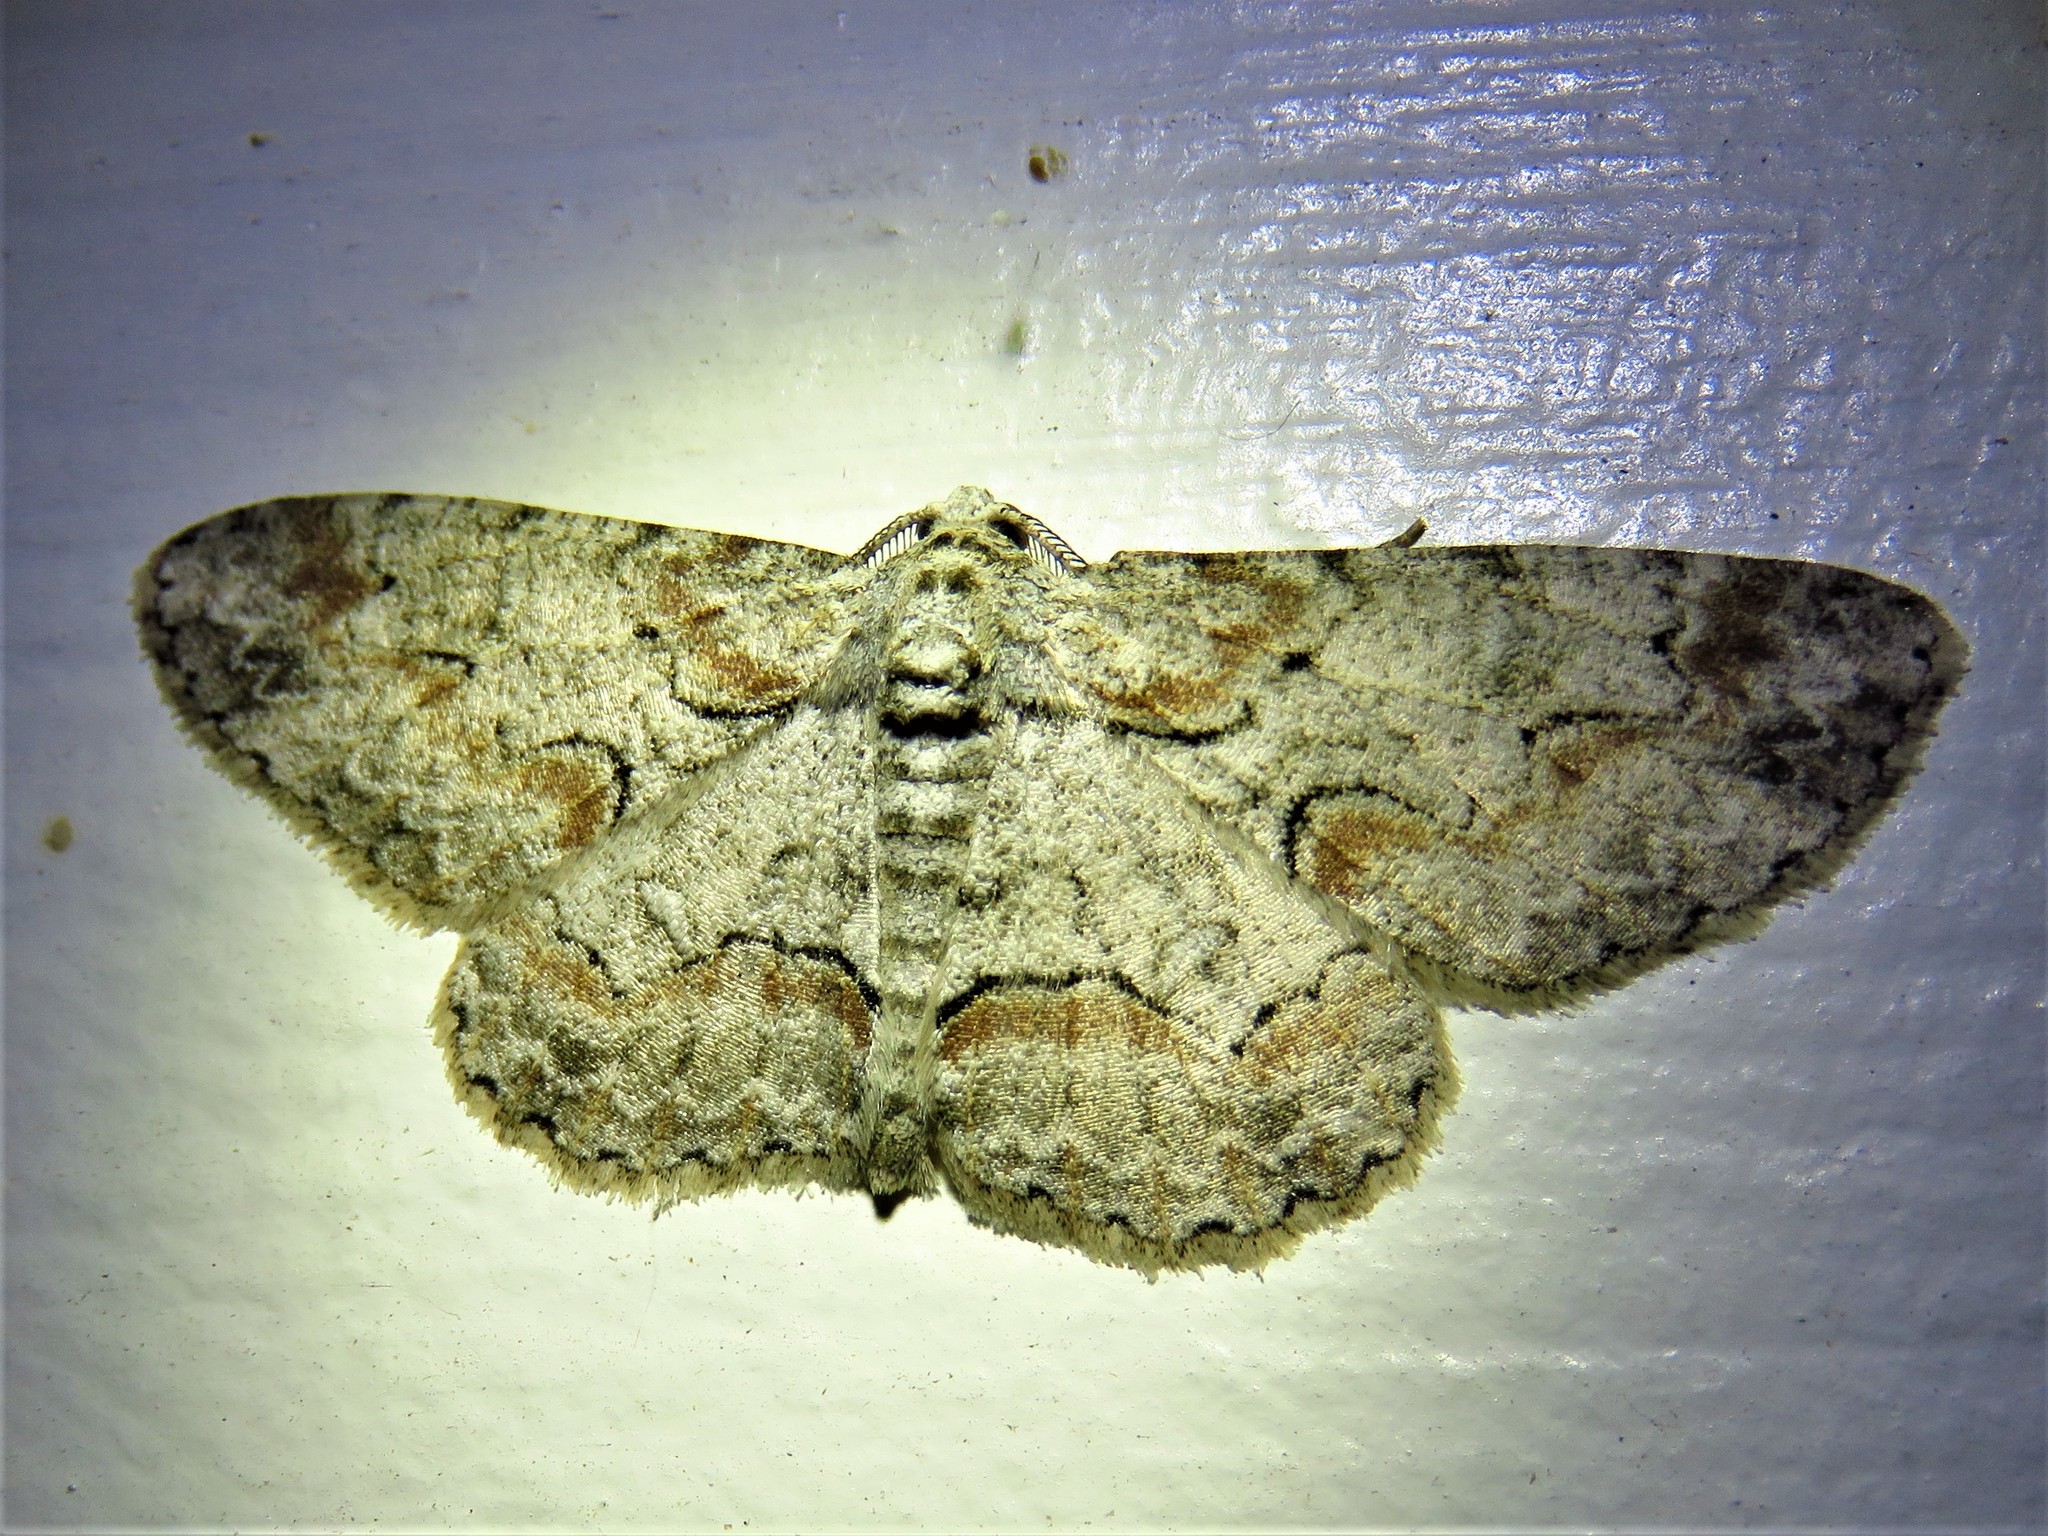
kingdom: Animalia
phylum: Arthropoda
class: Insecta
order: Lepidoptera
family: Geometridae
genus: Iridopsis
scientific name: Iridopsis defectaria
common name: Brown-shaded gray
